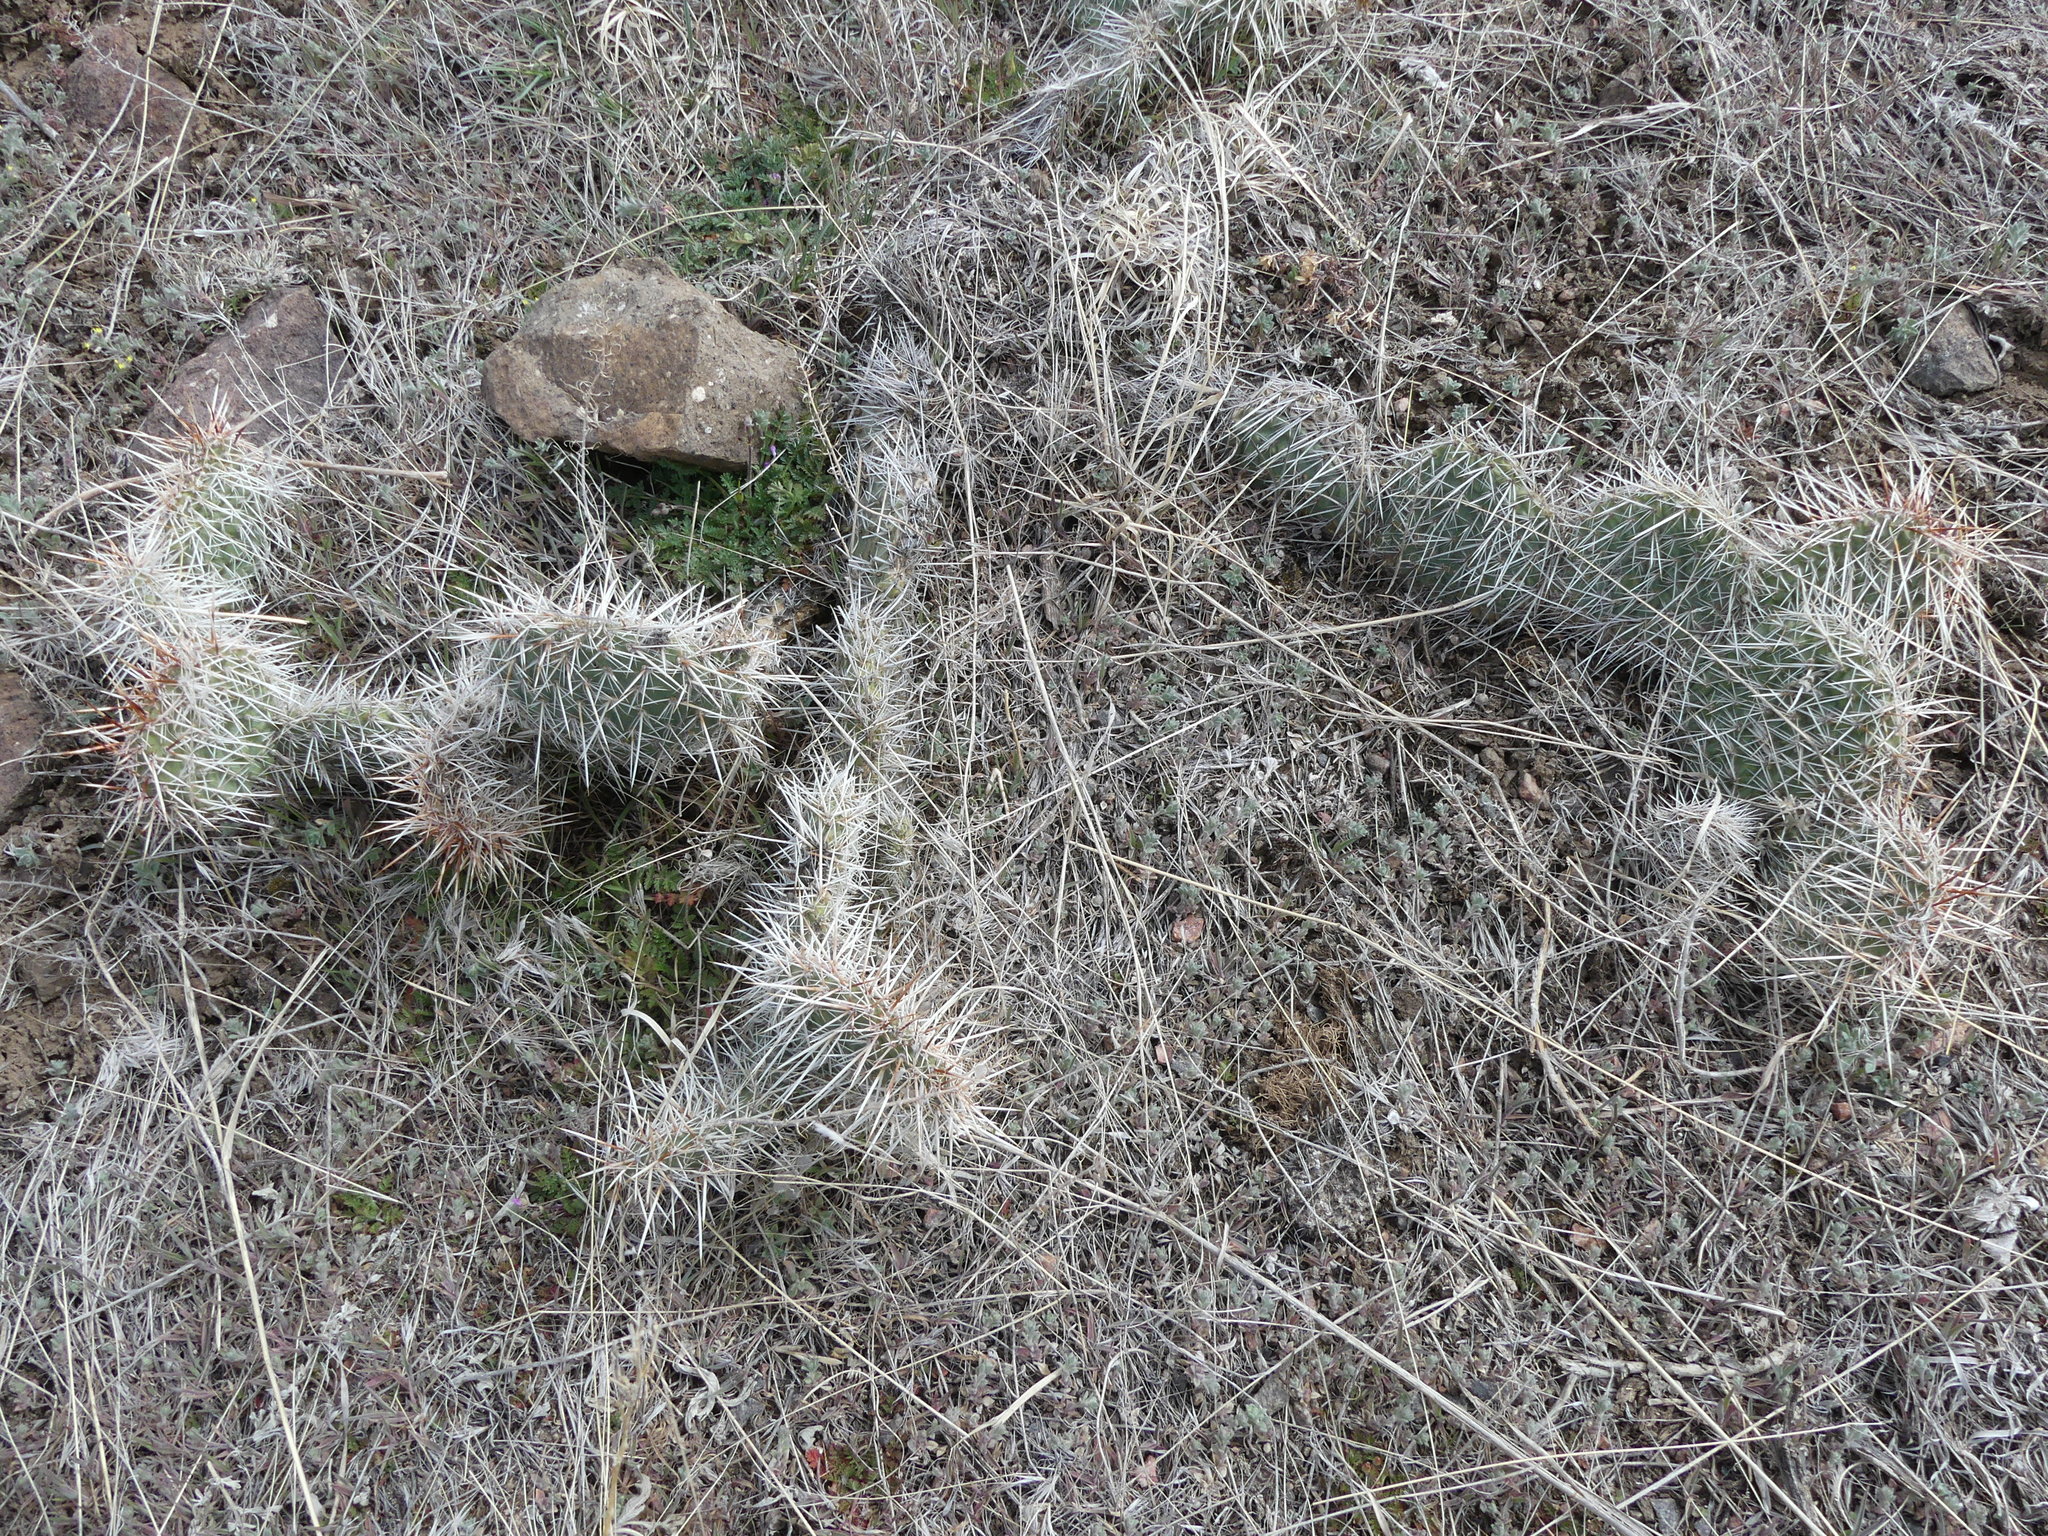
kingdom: Plantae
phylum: Tracheophyta
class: Magnoliopsida
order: Caryophyllales
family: Cactaceae
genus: Opuntia
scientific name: Opuntia polyacantha
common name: Plains prickly-pear
